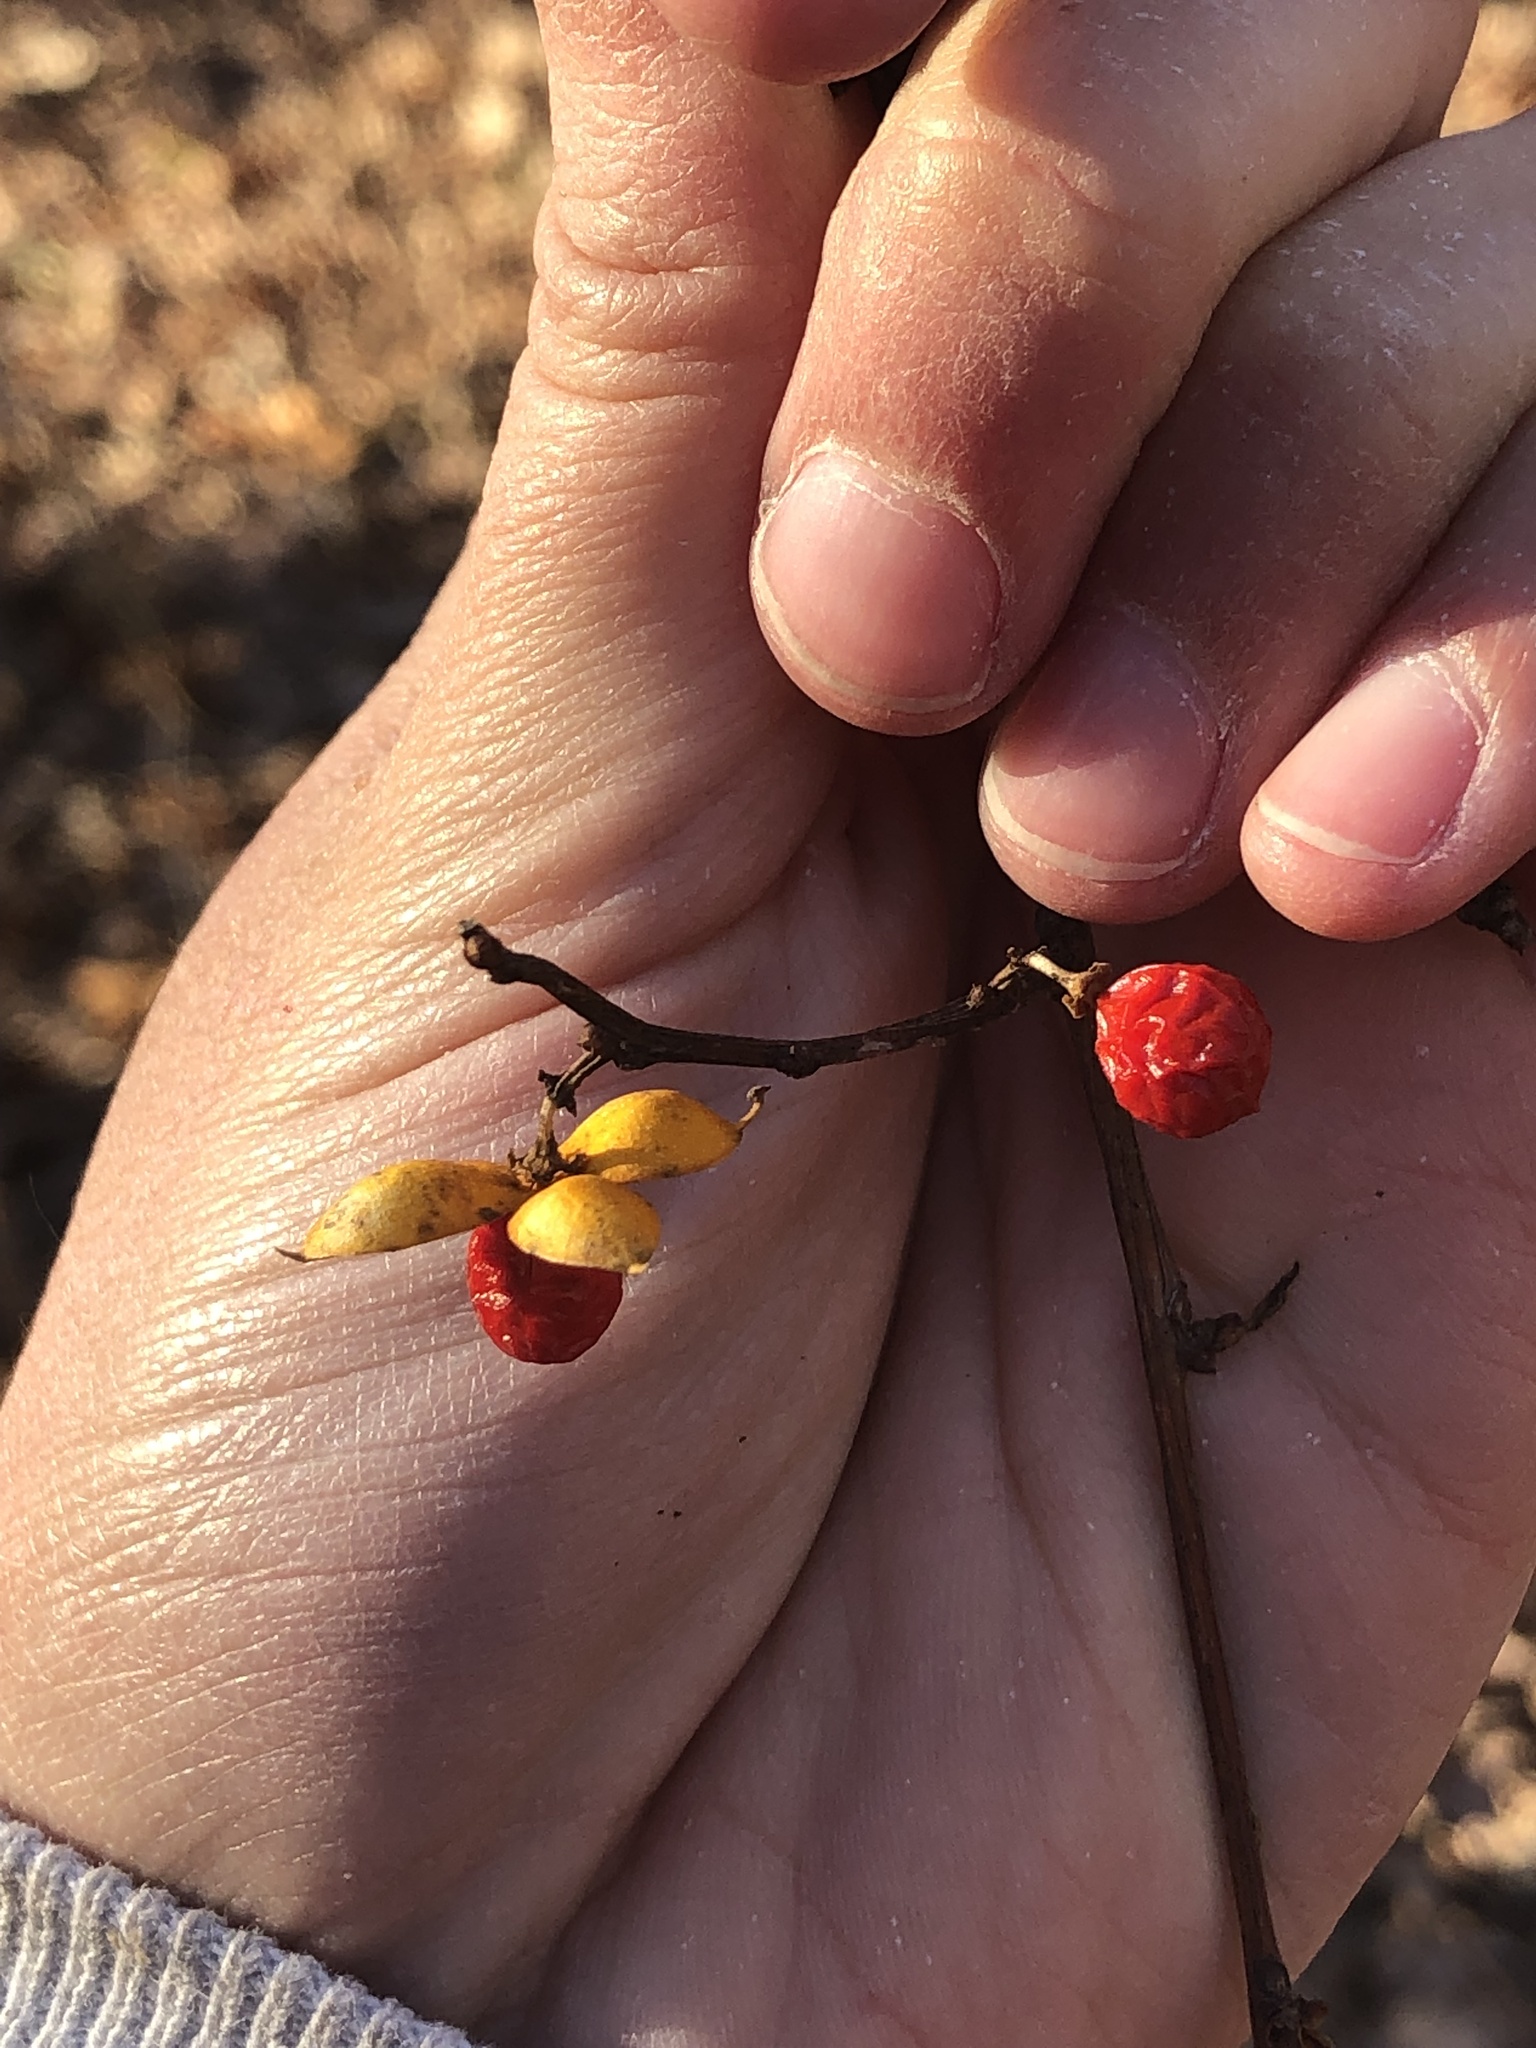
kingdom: Plantae
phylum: Tracheophyta
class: Magnoliopsida
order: Celastrales
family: Celastraceae
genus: Celastrus
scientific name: Celastrus orbiculatus
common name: Oriental bittersweet
